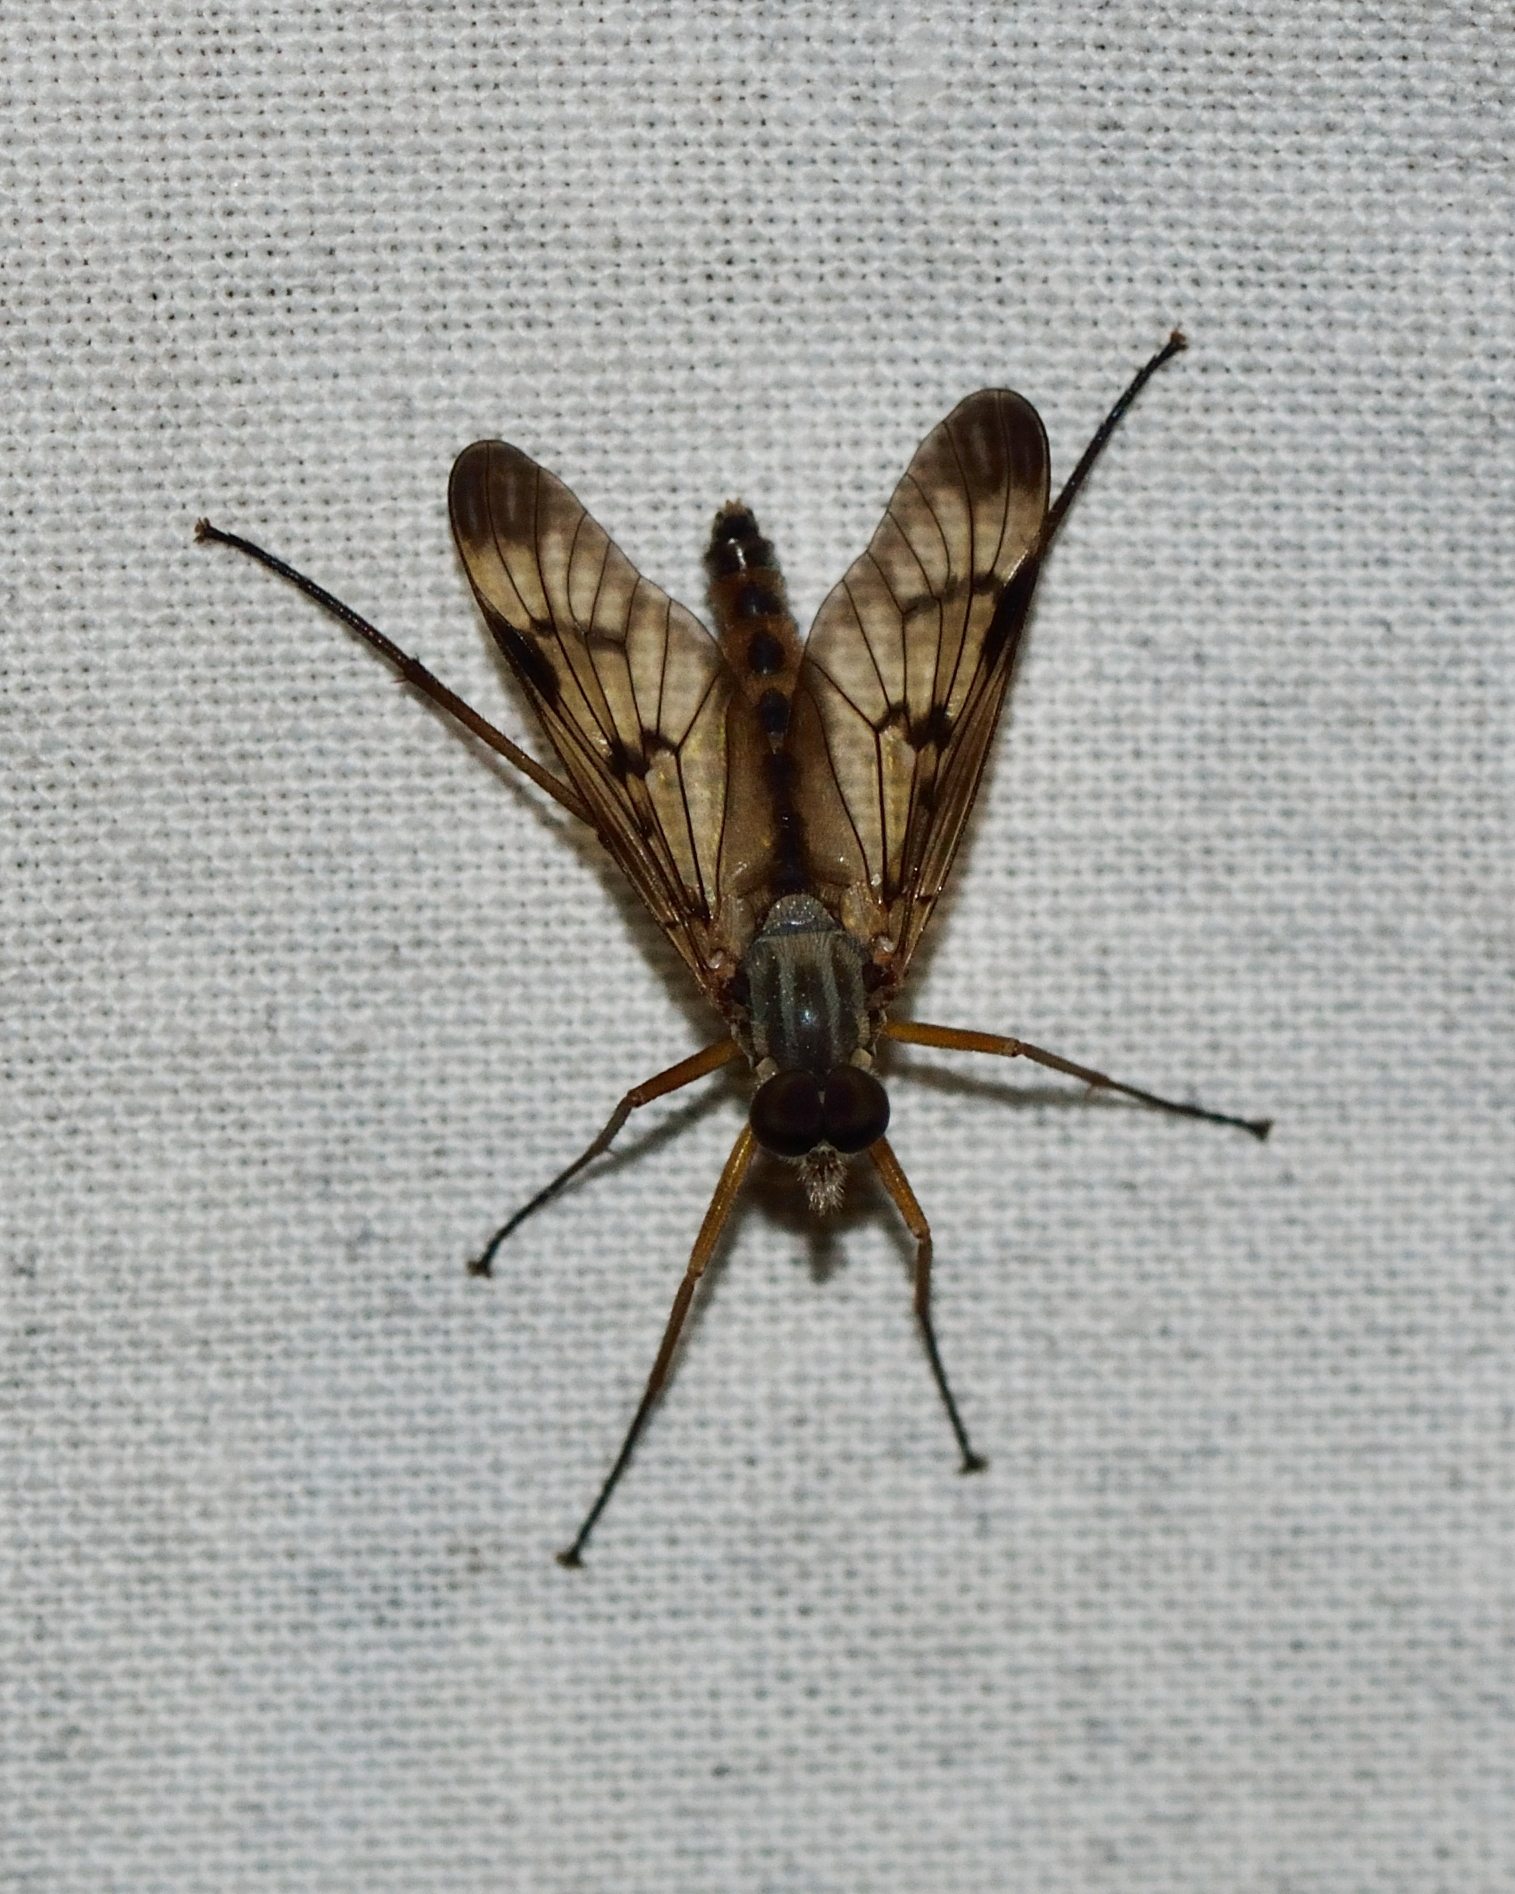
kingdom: Animalia
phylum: Arthropoda
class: Insecta
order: Diptera
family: Rhagionidae
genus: Rhagio
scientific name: Rhagio scolopacea
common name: Downlooker snipefly
